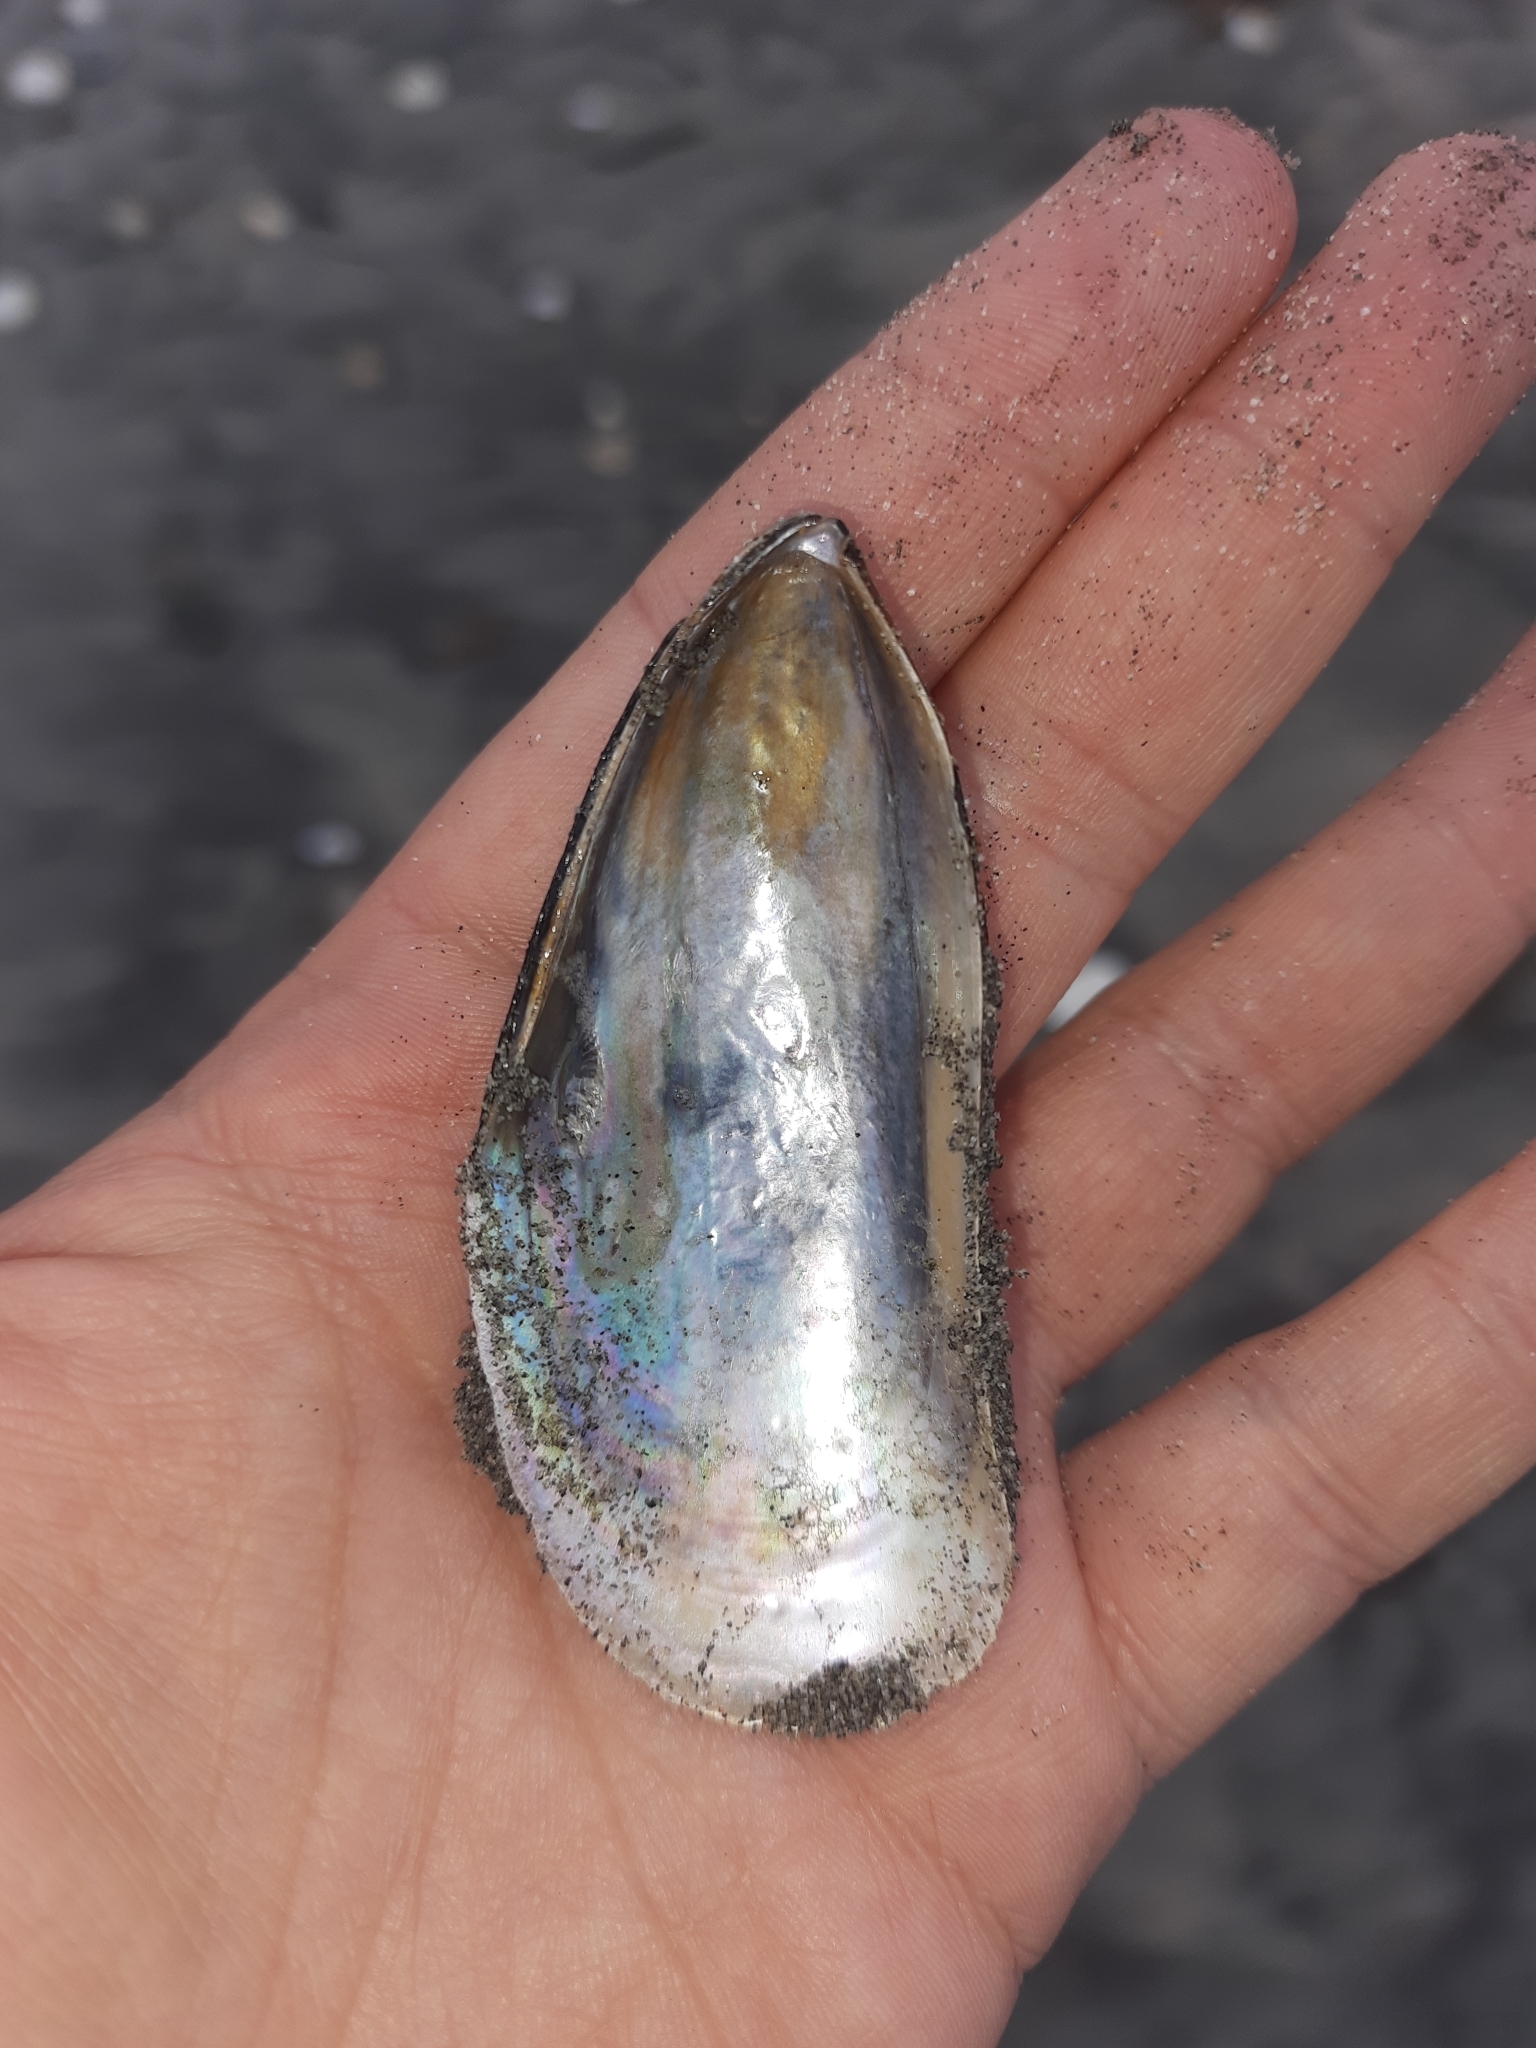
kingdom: Animalia
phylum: Mollusca
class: Bivalvia
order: Mytilida
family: Mytilidae
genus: Perna
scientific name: Perna canaliculus
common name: New zealand greenshelltm
